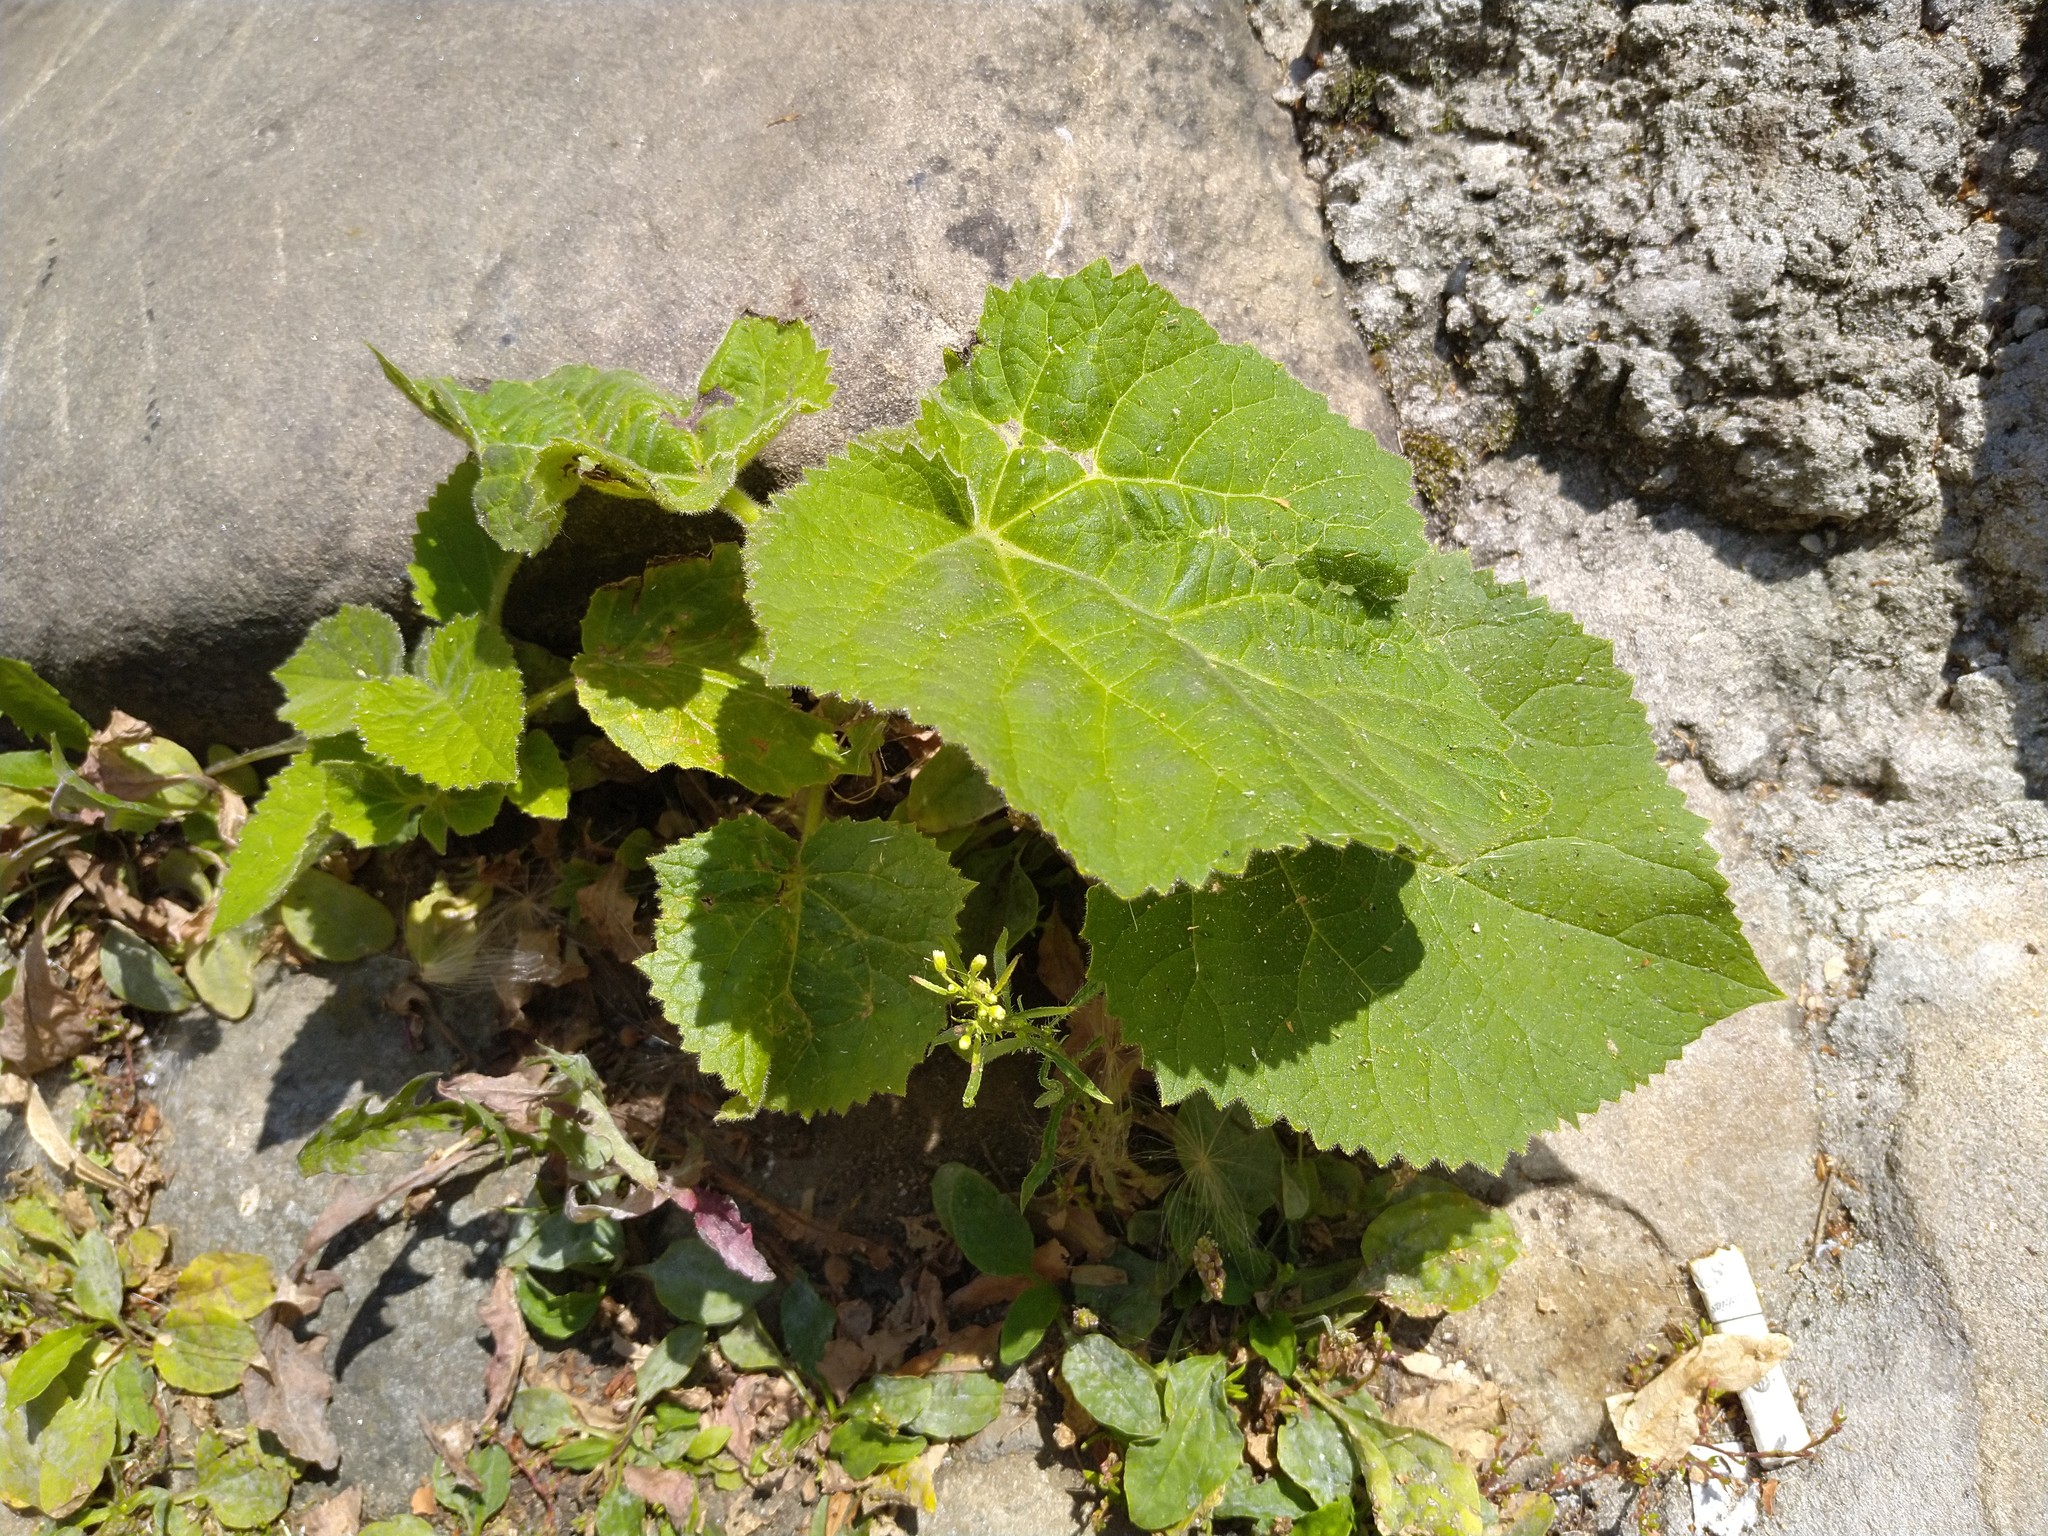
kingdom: Plantae
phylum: Tracheophyta
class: Magnoliopsida
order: Lamiales
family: Paulowniaceae
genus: Paulownia
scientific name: Paulownia tomentosa
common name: Foxglove-tree
